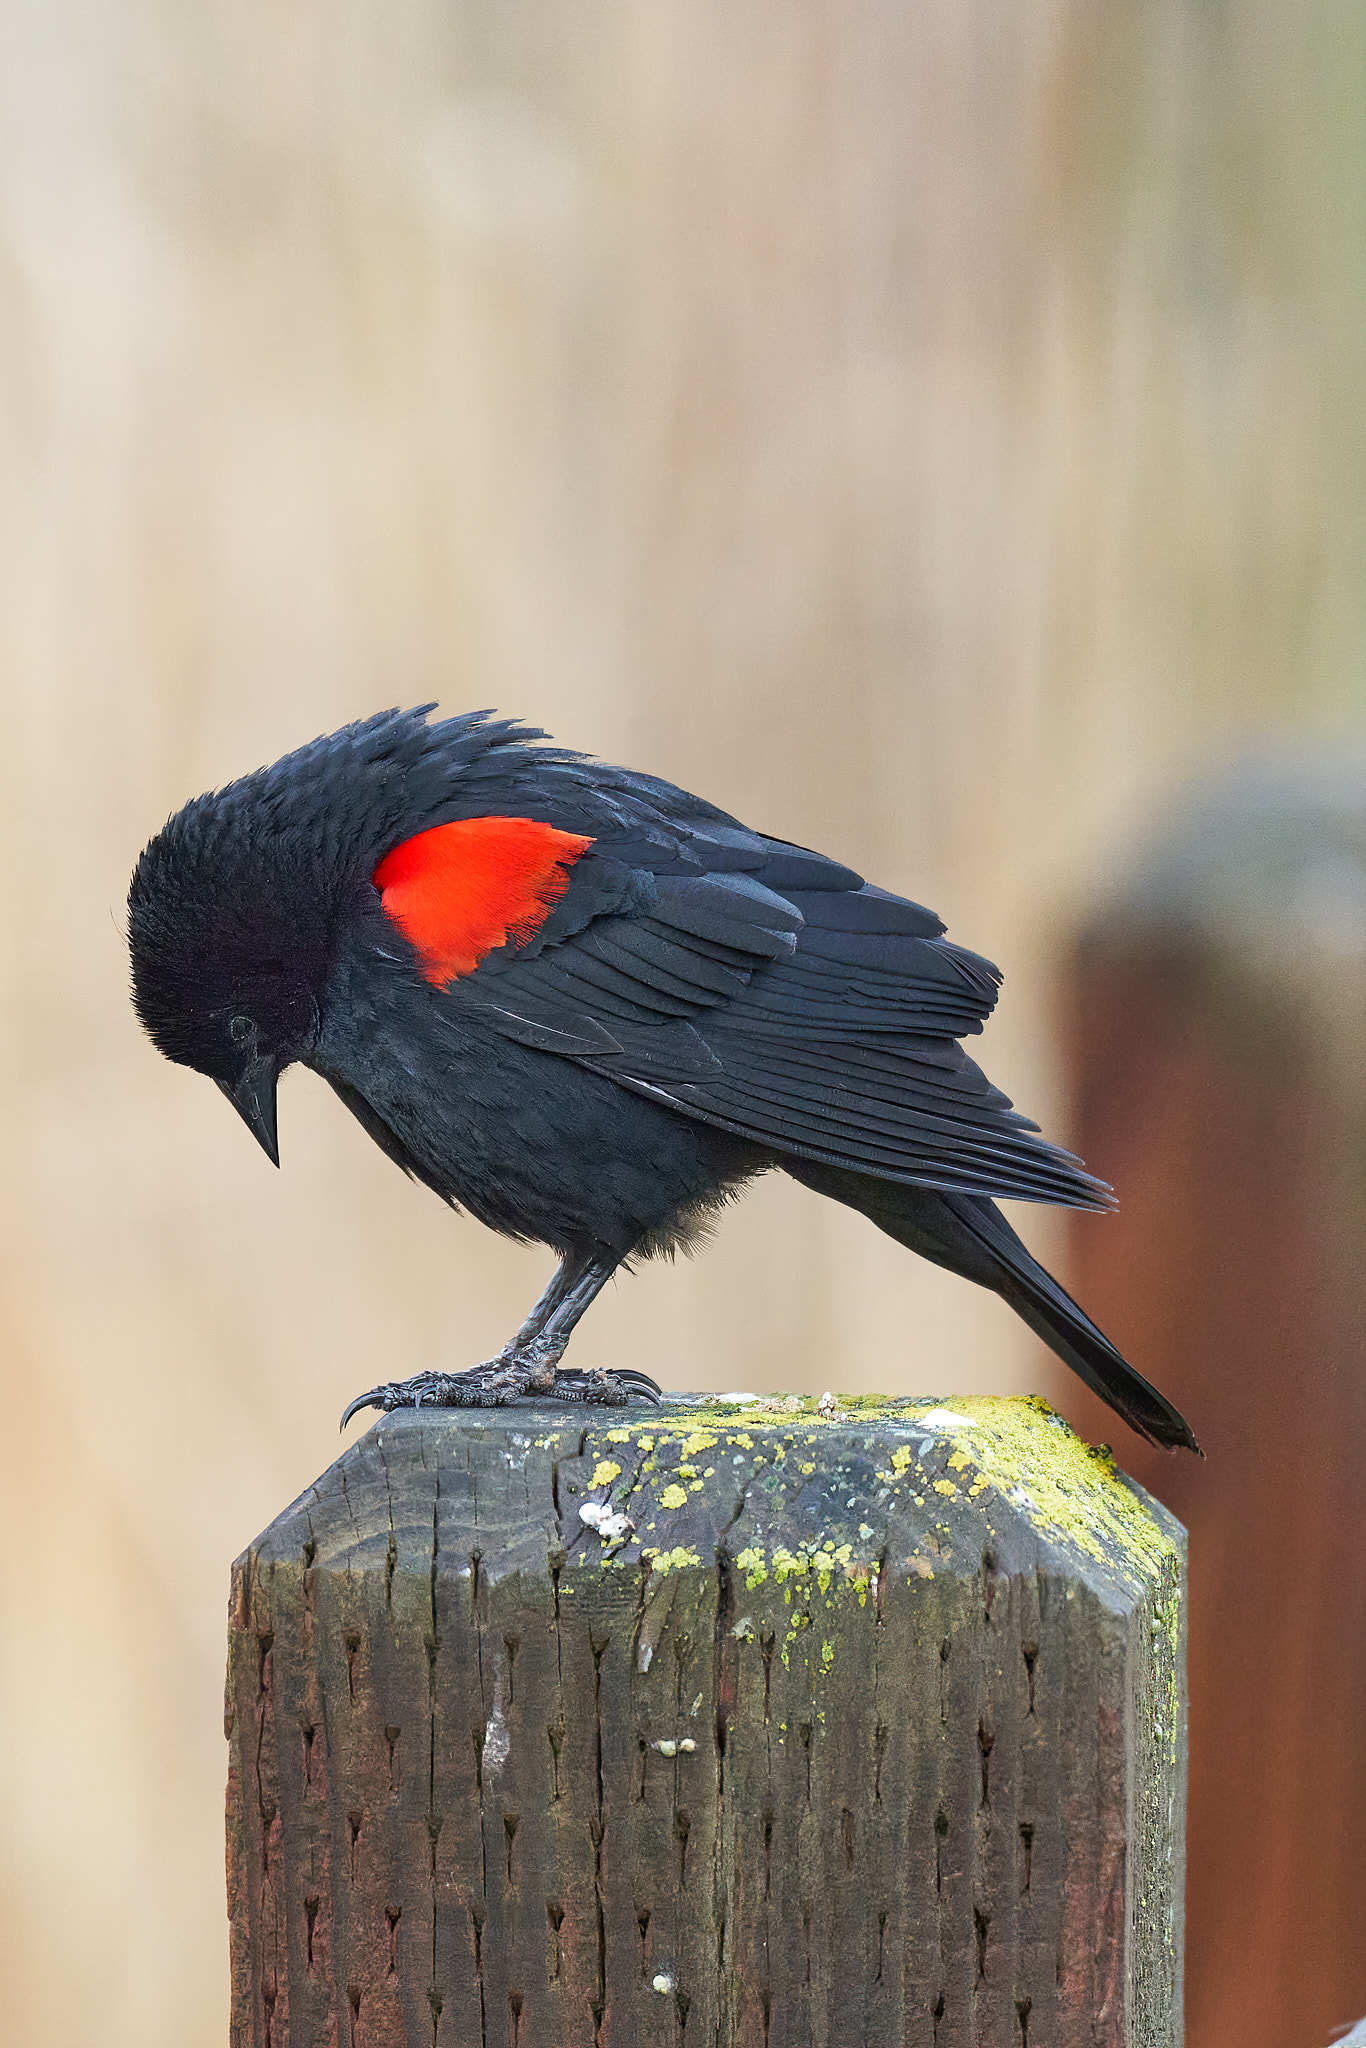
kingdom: Animalia
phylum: Chordata
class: Aves
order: Passeriformes
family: Icteridae
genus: Agelaius
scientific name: Agelaius phoeniceus
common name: Red-winged blackbird
